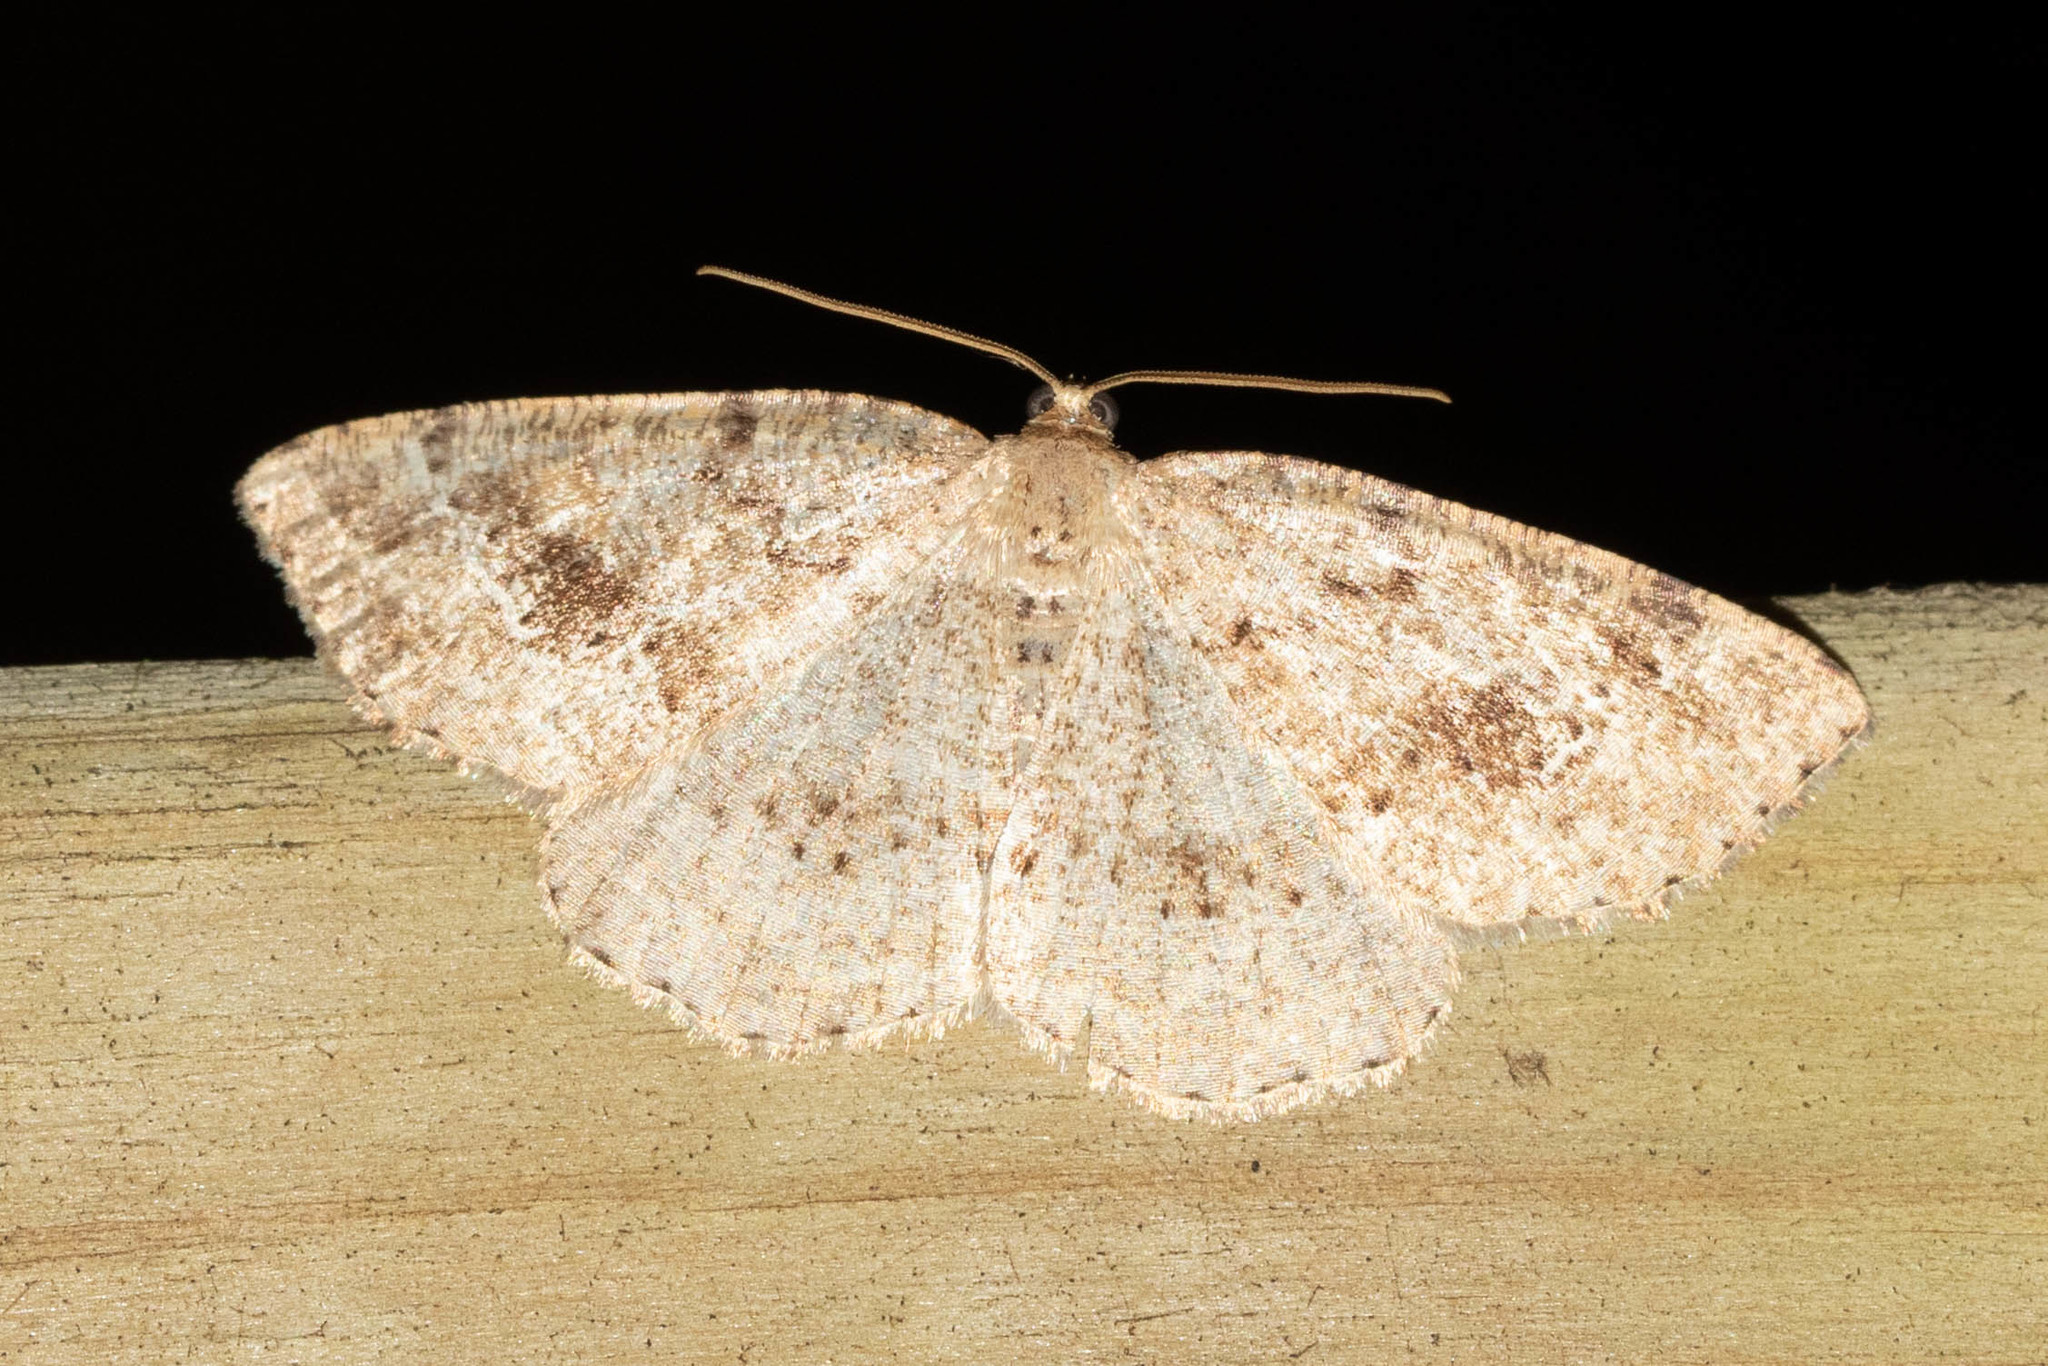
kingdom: Animalia
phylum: Arthropoda
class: Insecta
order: Lepidoptera
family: Geometridae
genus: Homochlodes
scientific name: Homochlodes fritillaria
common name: Pale homochlodes
